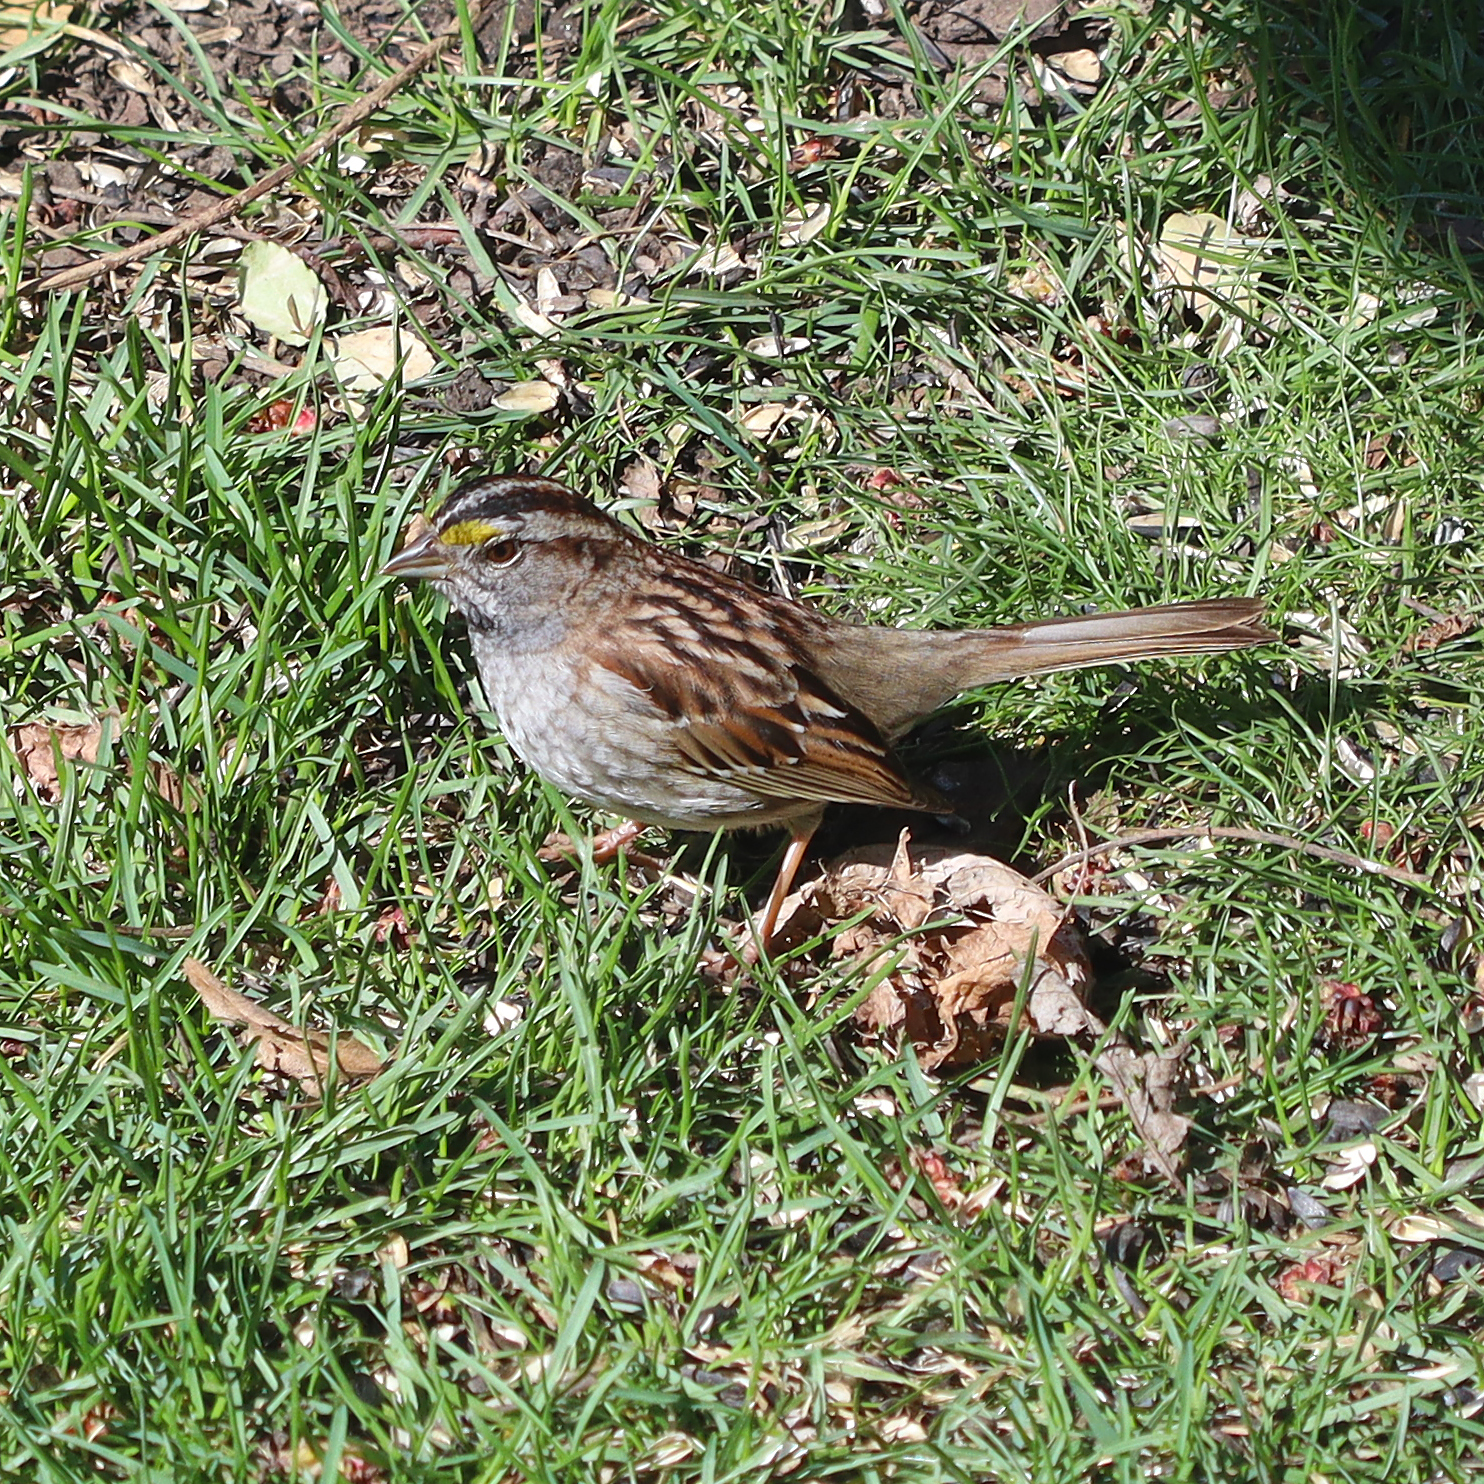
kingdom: Animalia
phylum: Chordata
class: Aves
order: Passeriformes
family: Passerellidae
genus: Zonotrichia
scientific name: Zonotrichia albicollis
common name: White-throated sparrow
